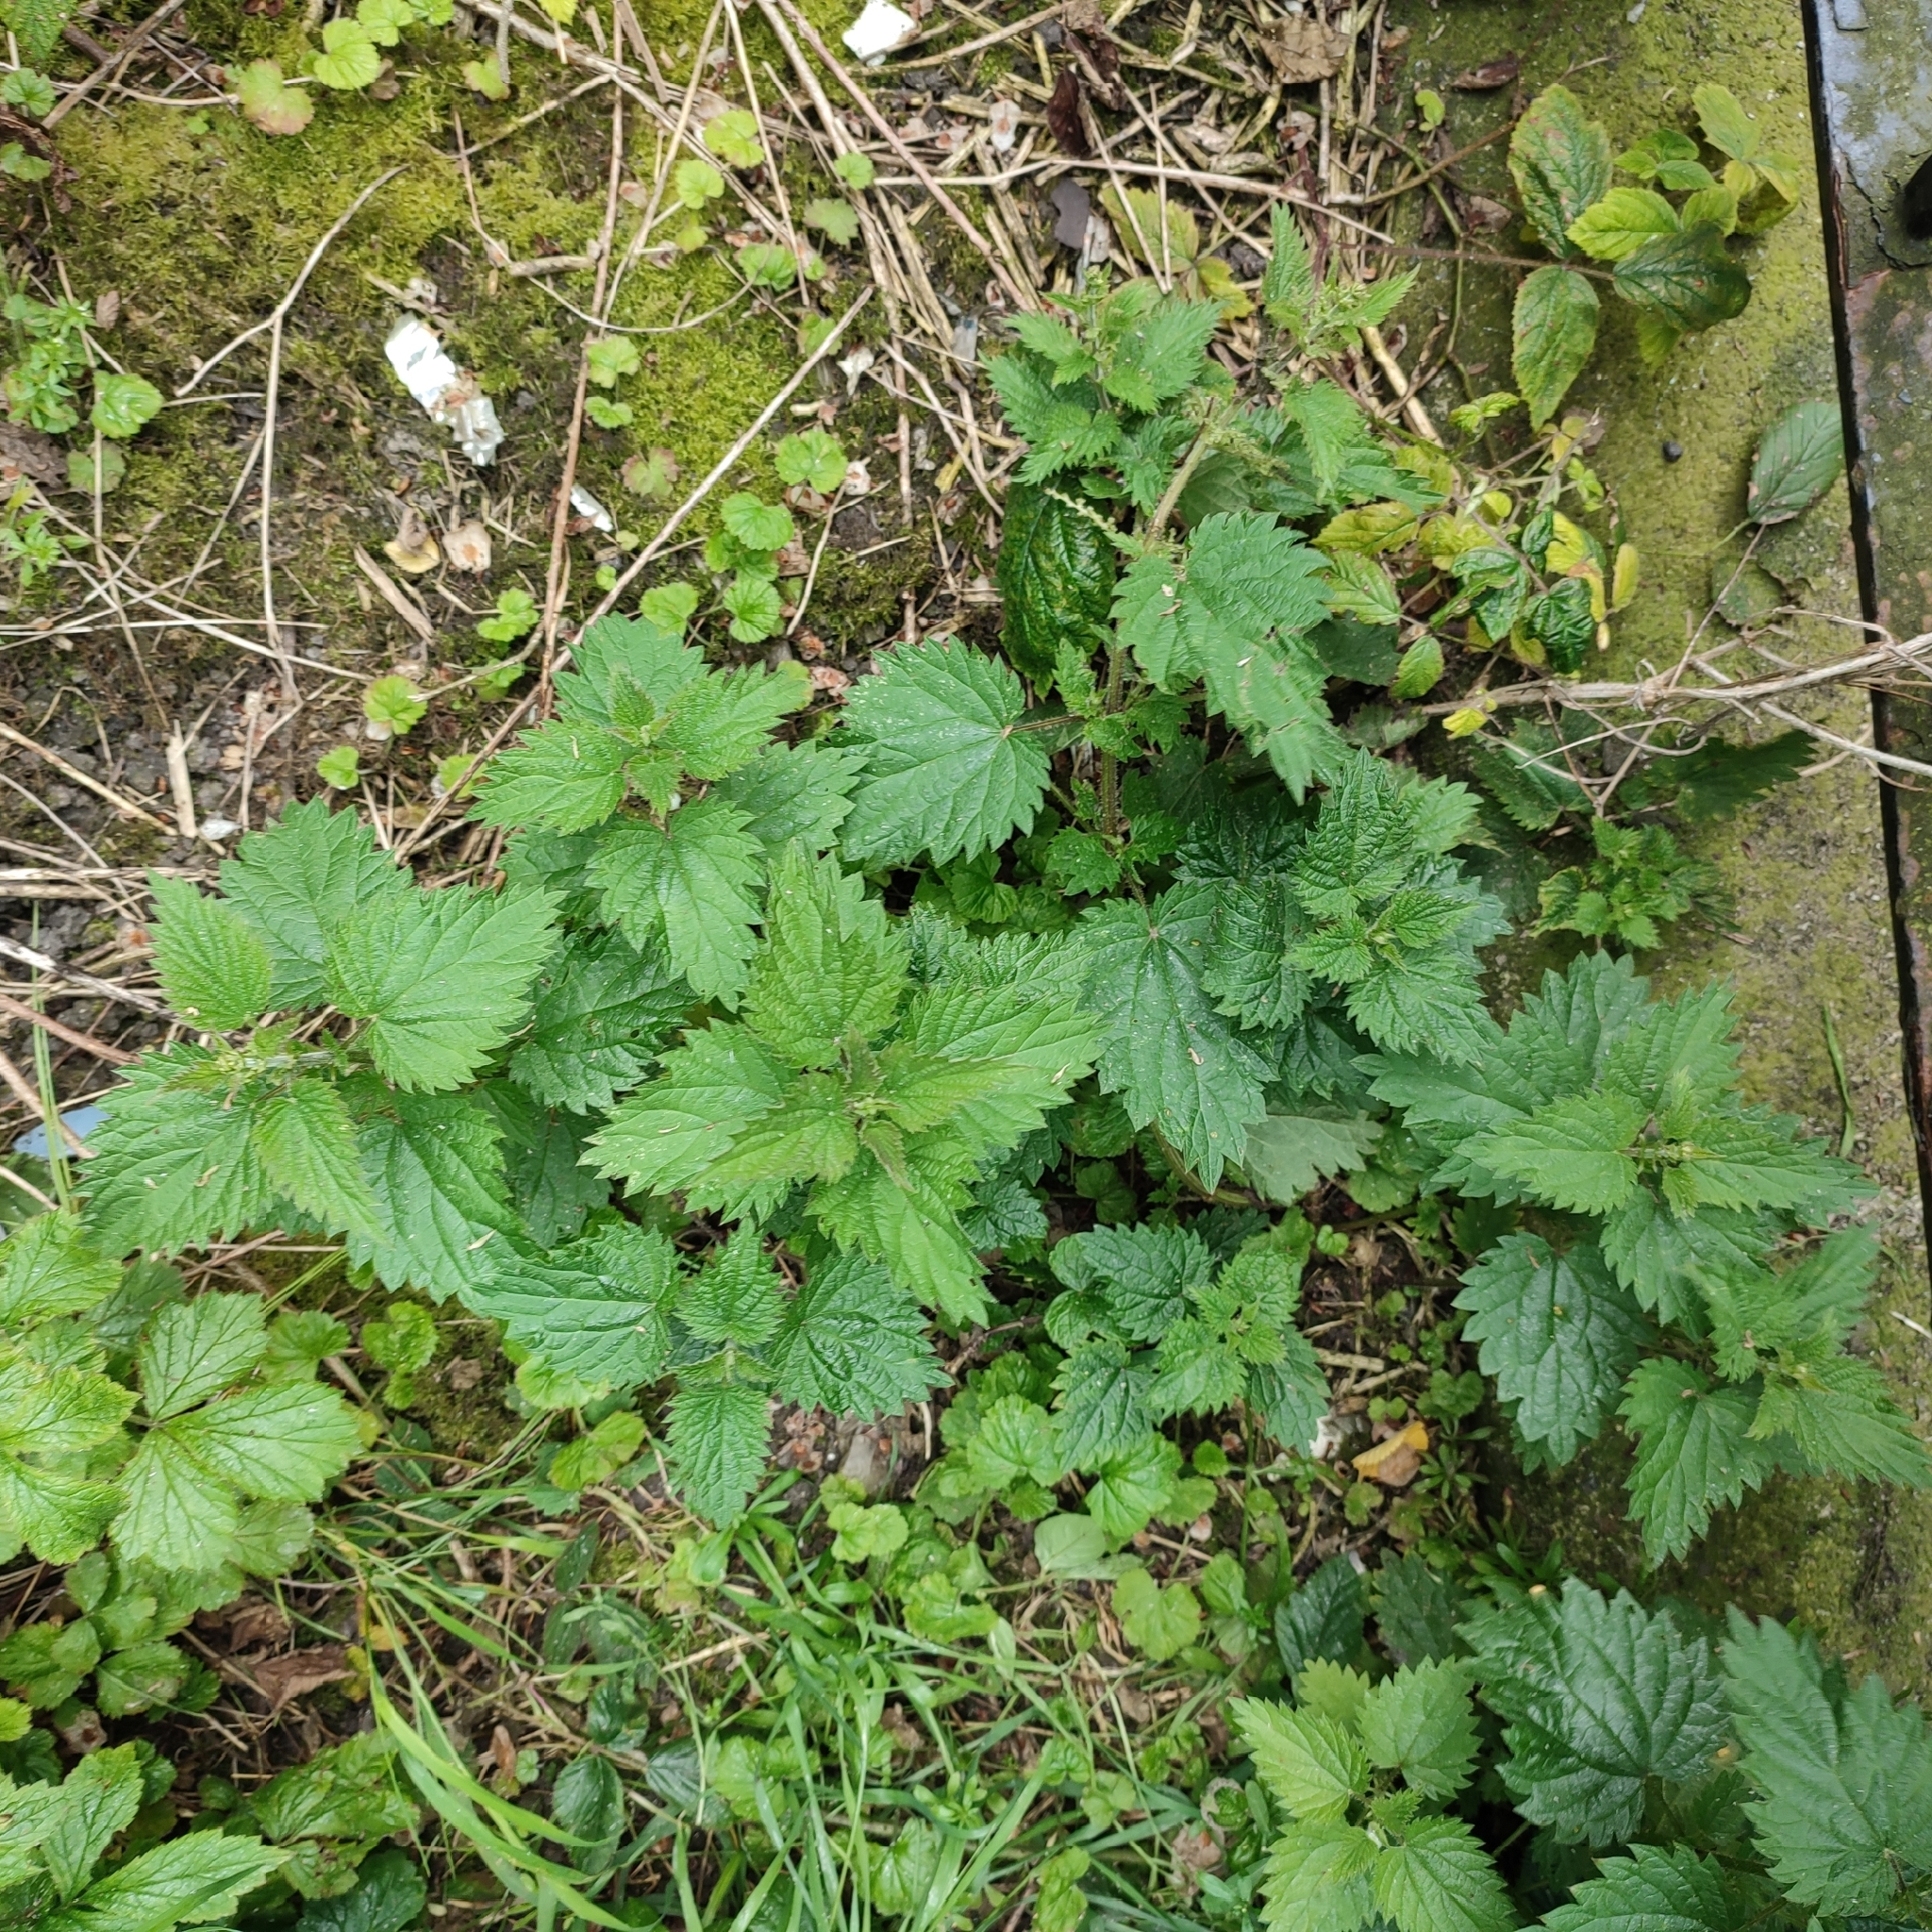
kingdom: Plantae
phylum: Tracheophyta
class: Magnoliopsida
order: Rosales
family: Urticaceae
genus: Urtica
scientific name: Urtica dioica
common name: Common nettle
